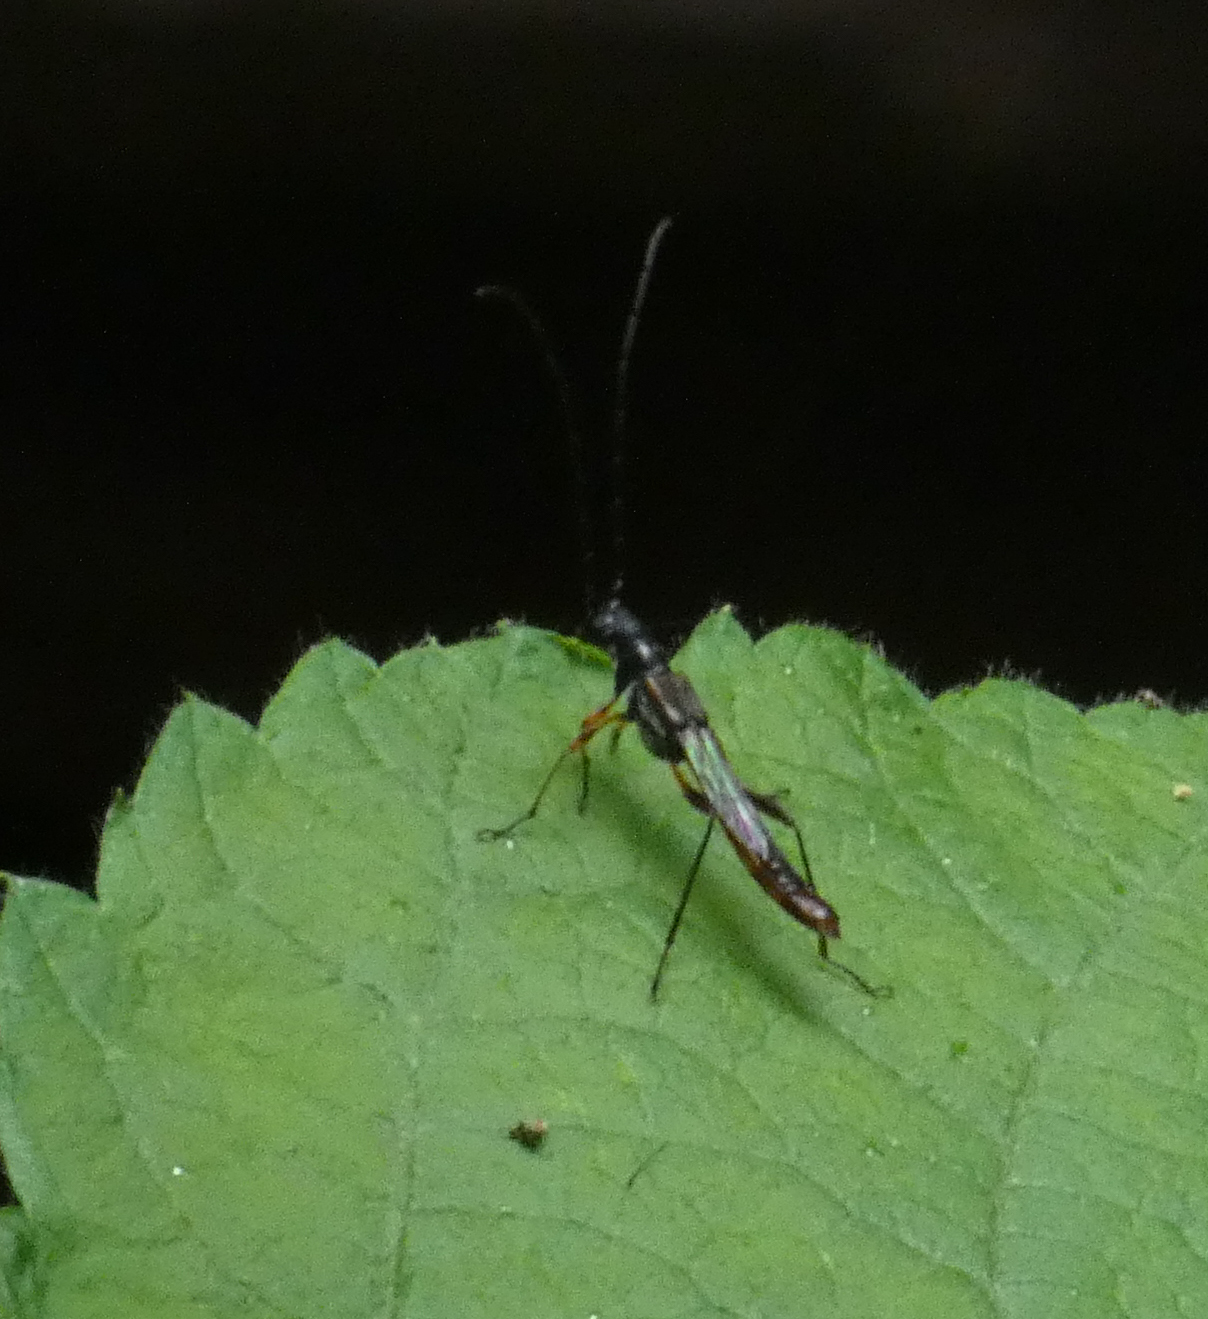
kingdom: Animalia
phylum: Arthropoda
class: Insecta
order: Coleoptera
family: Cerambycidae
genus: Necydalis
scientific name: Necydalis mellita
